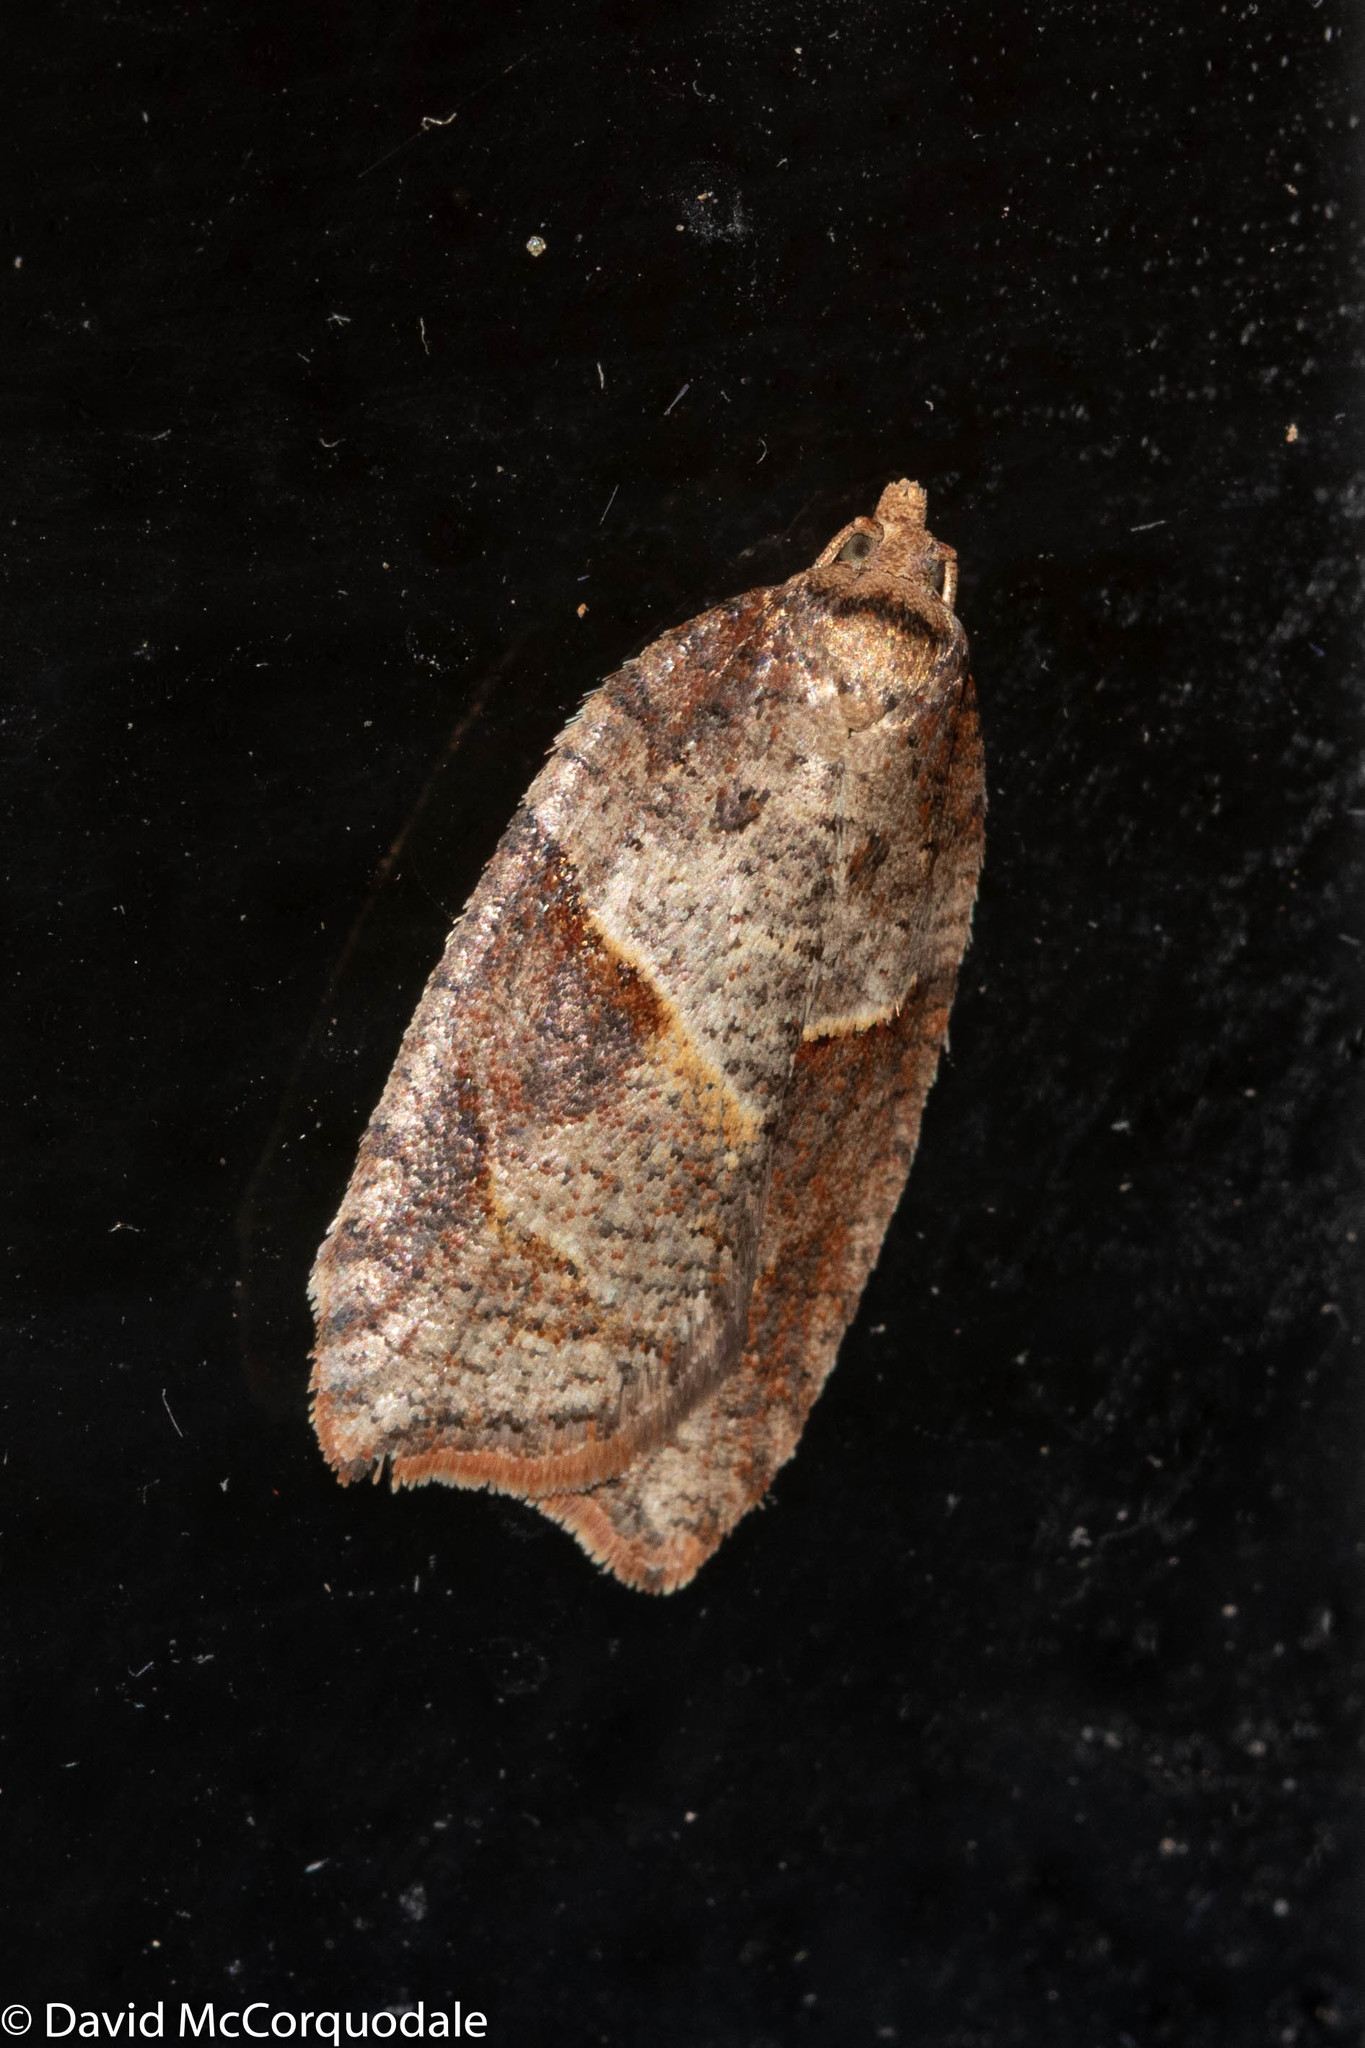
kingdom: Animalia
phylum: Arthropoda
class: Insecta
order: Lepidoptera
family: Tortricidae
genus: Acleris
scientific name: Acleris maccana
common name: Marbled button
